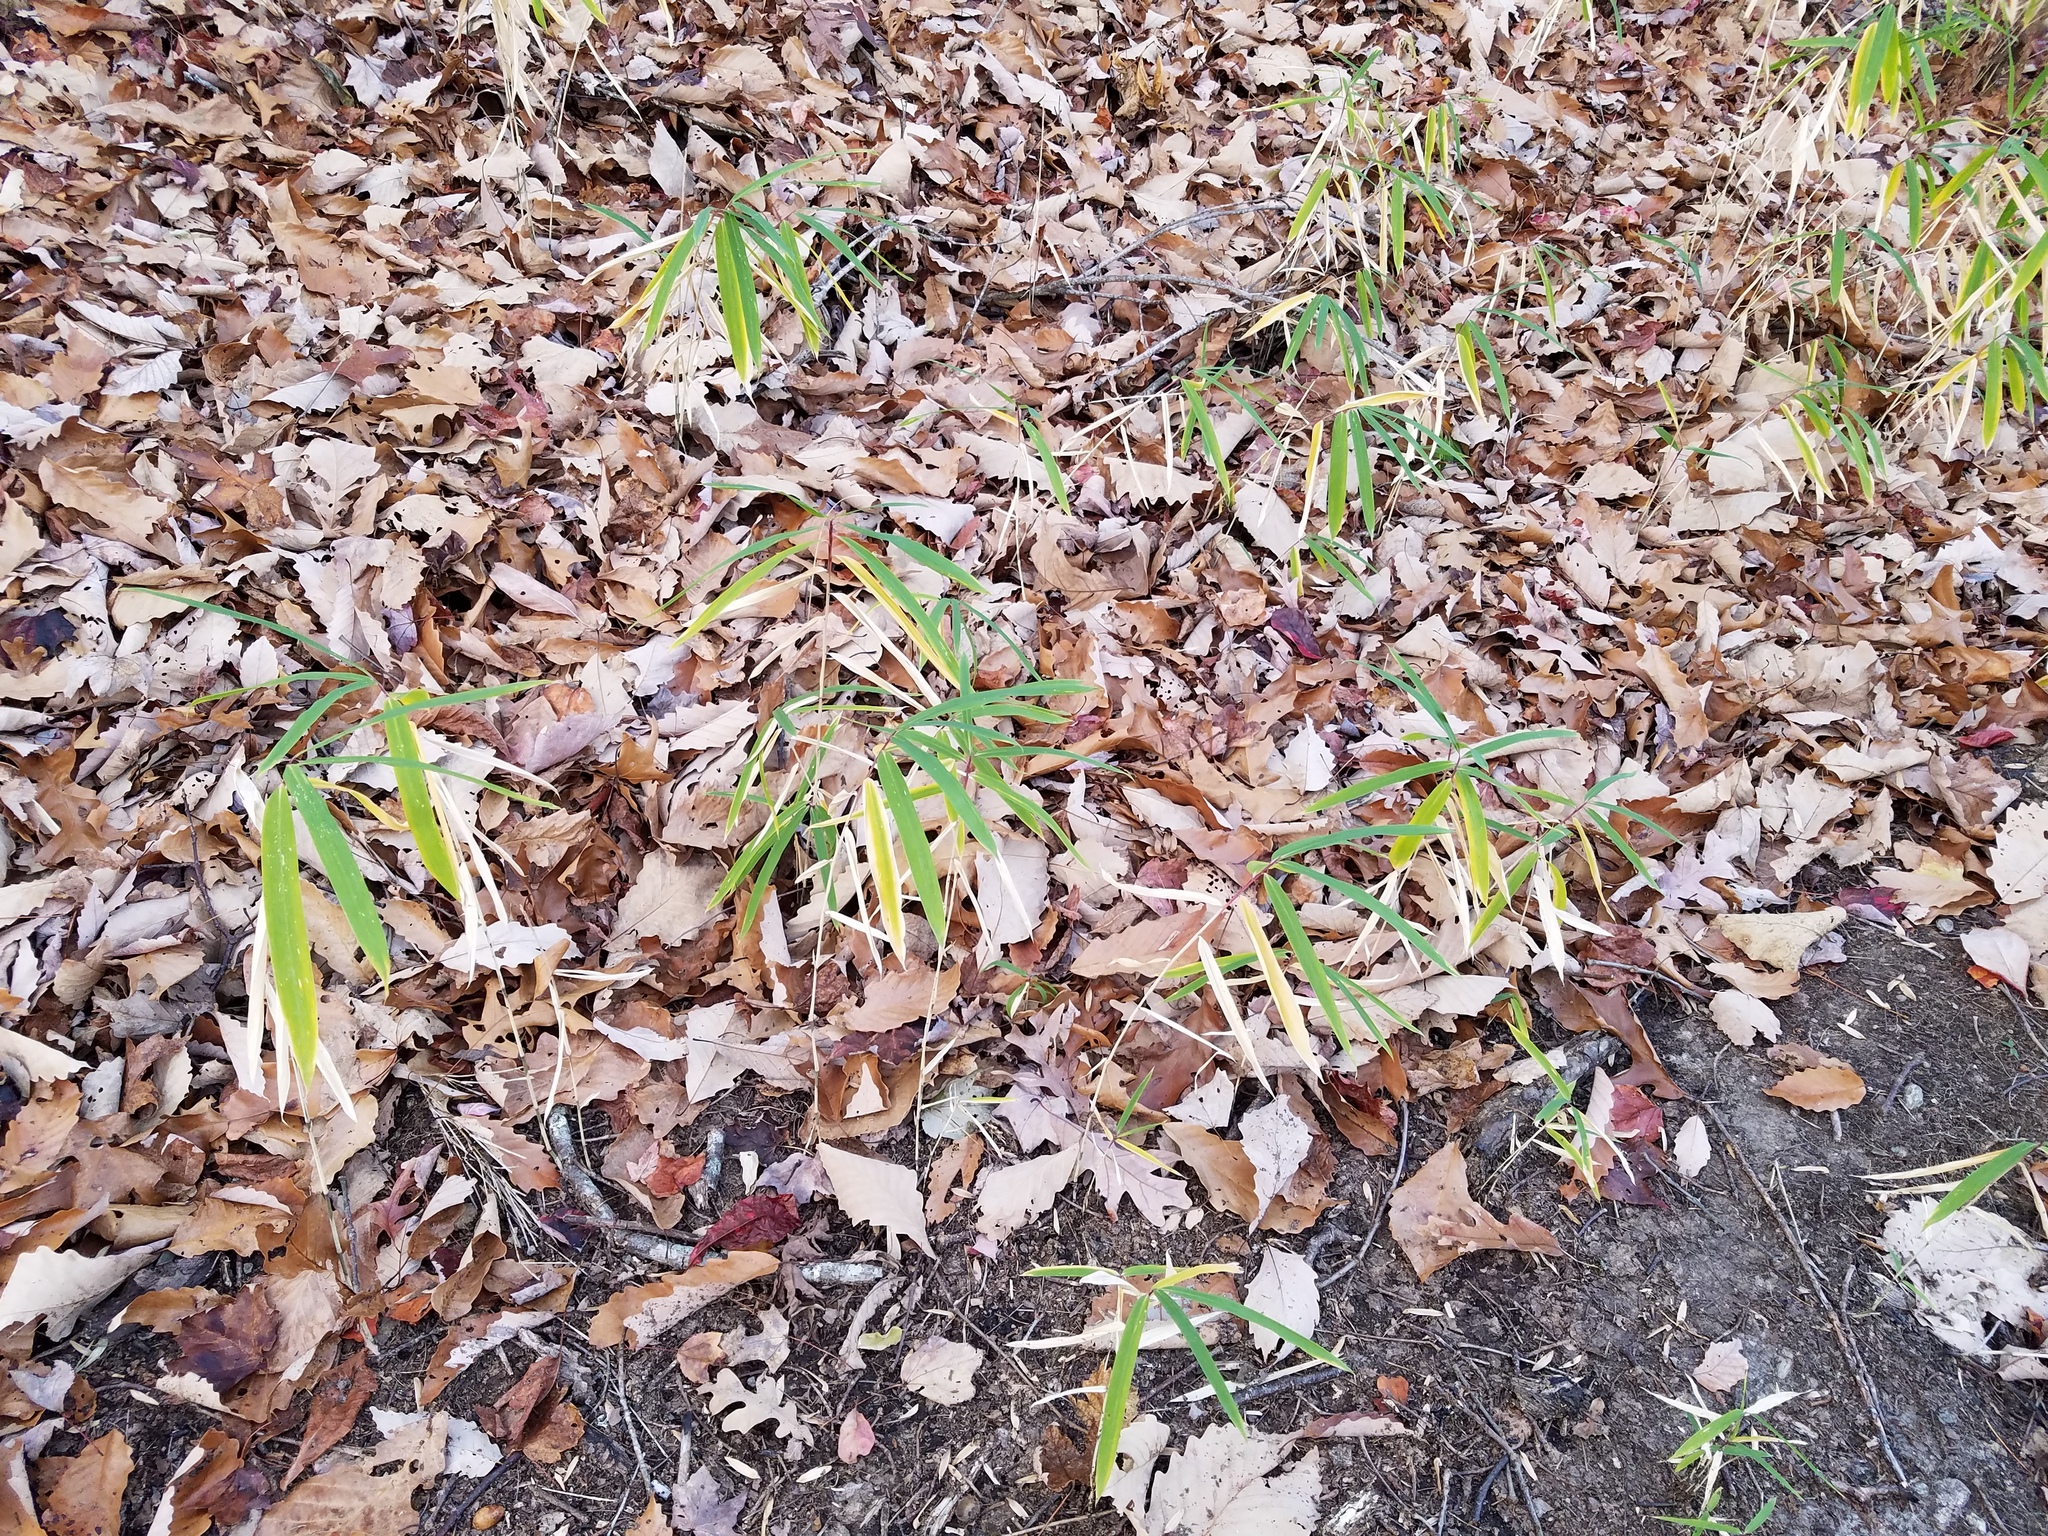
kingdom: Plantae
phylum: Tracheophyta
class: Liliopsida
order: Poales
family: Poaceae
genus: Arundinaria
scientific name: Arundinaria appalachiana
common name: Hill cane
